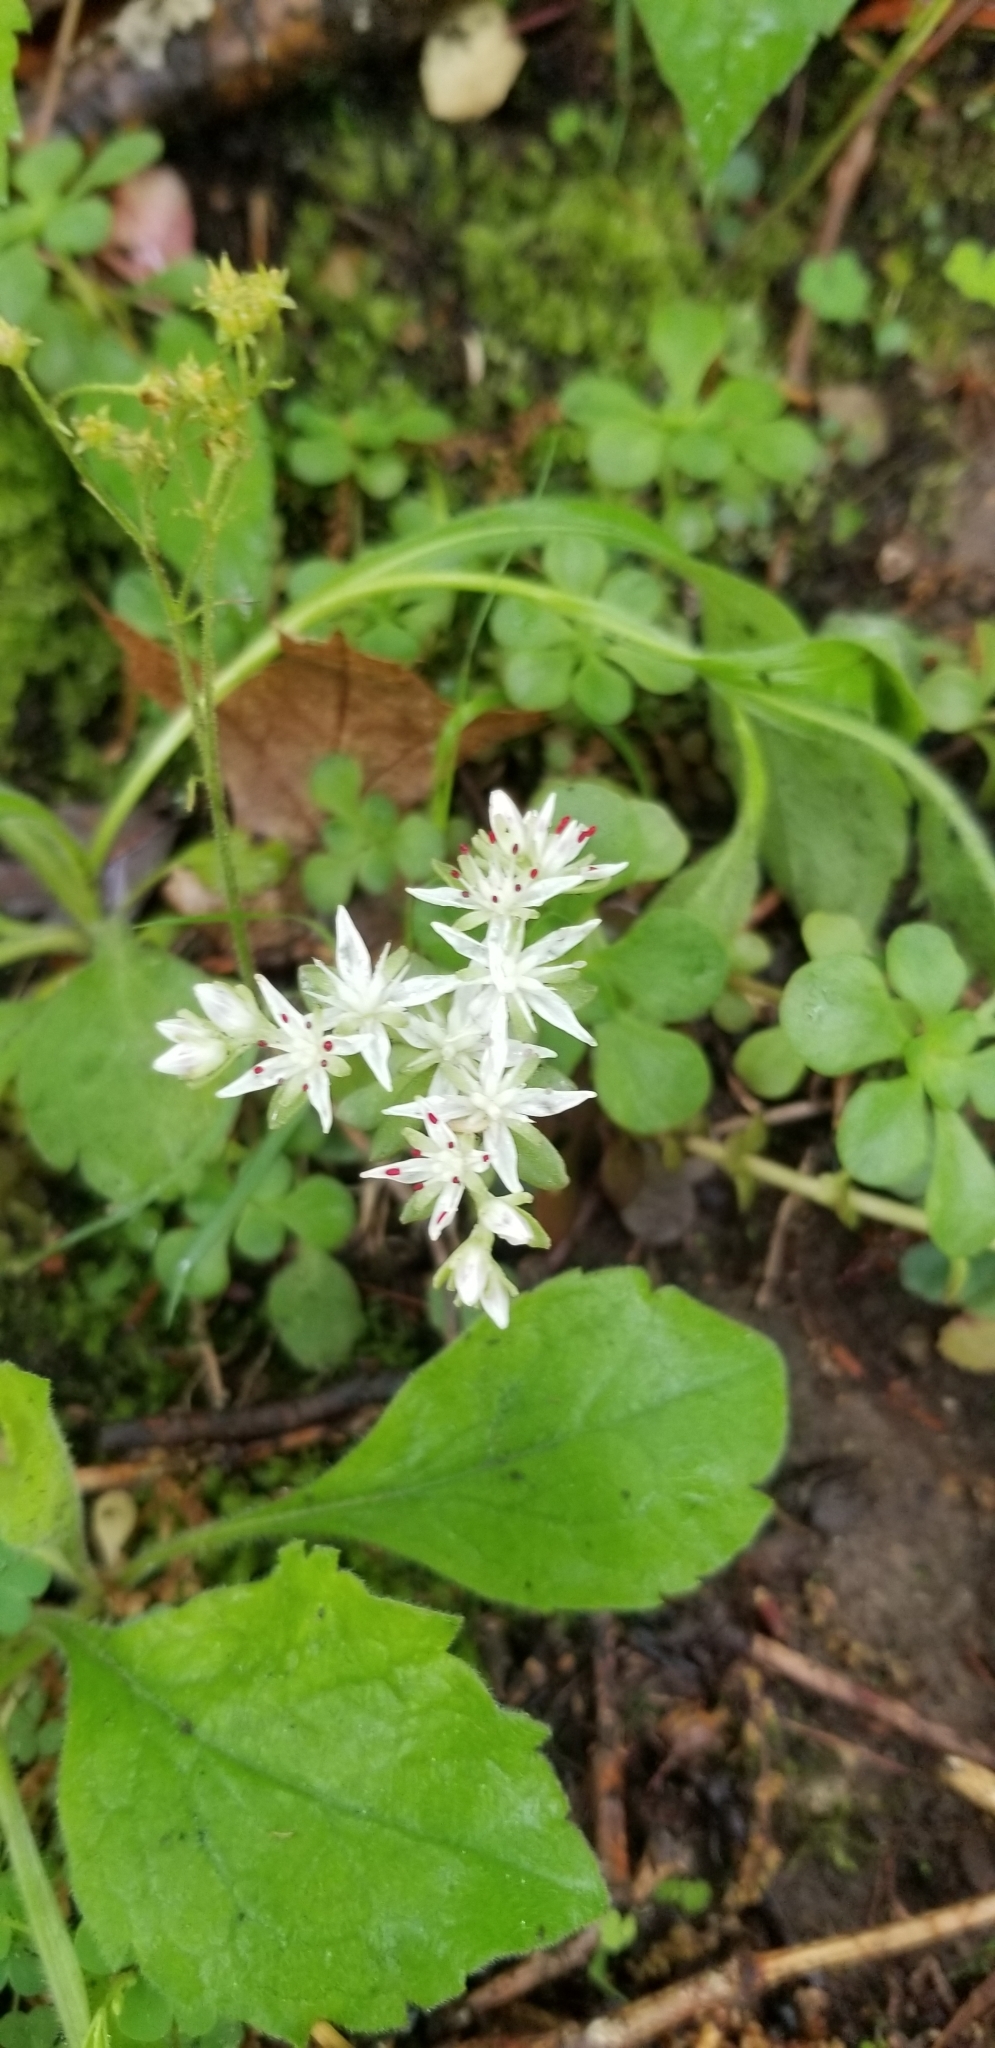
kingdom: Plantae
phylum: Tracheophyta
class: Magnoliopsida
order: Saxifragales
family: Crassulaceae
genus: Sedum
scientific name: Sedum ternatum
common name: Wild stonecrop
